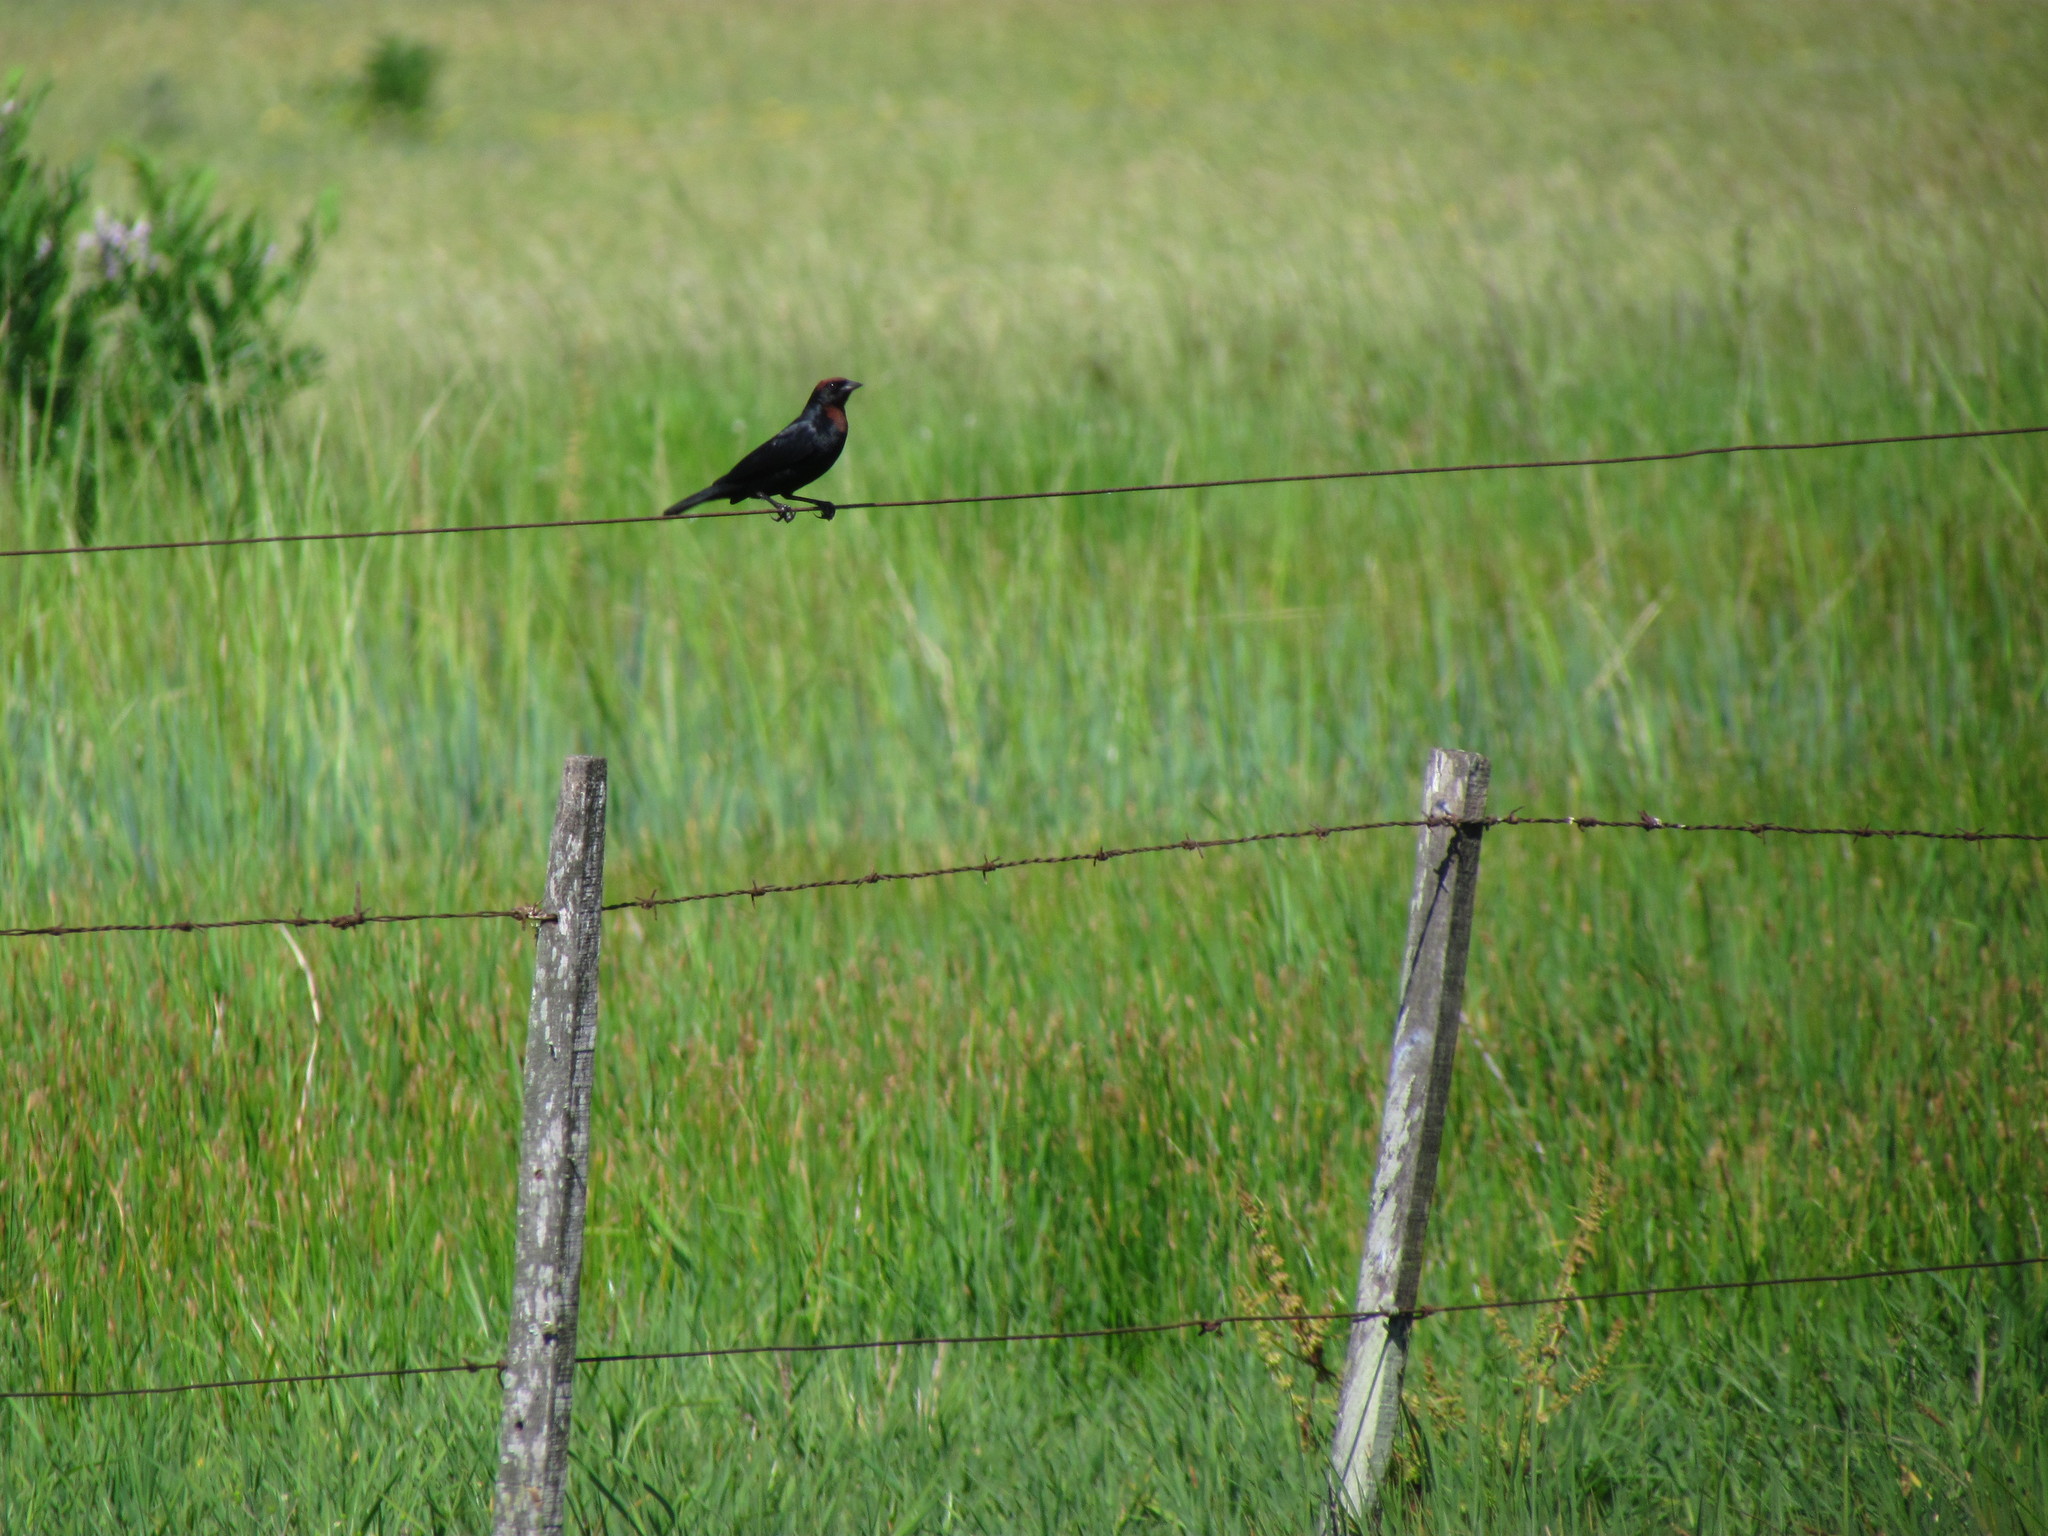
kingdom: Animalia
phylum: Chordata
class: Aves
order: Passeriformes
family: Icteridae
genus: Chrysomus
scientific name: Chrysomus ruficapillus
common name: Chestnut-capped blackbird
